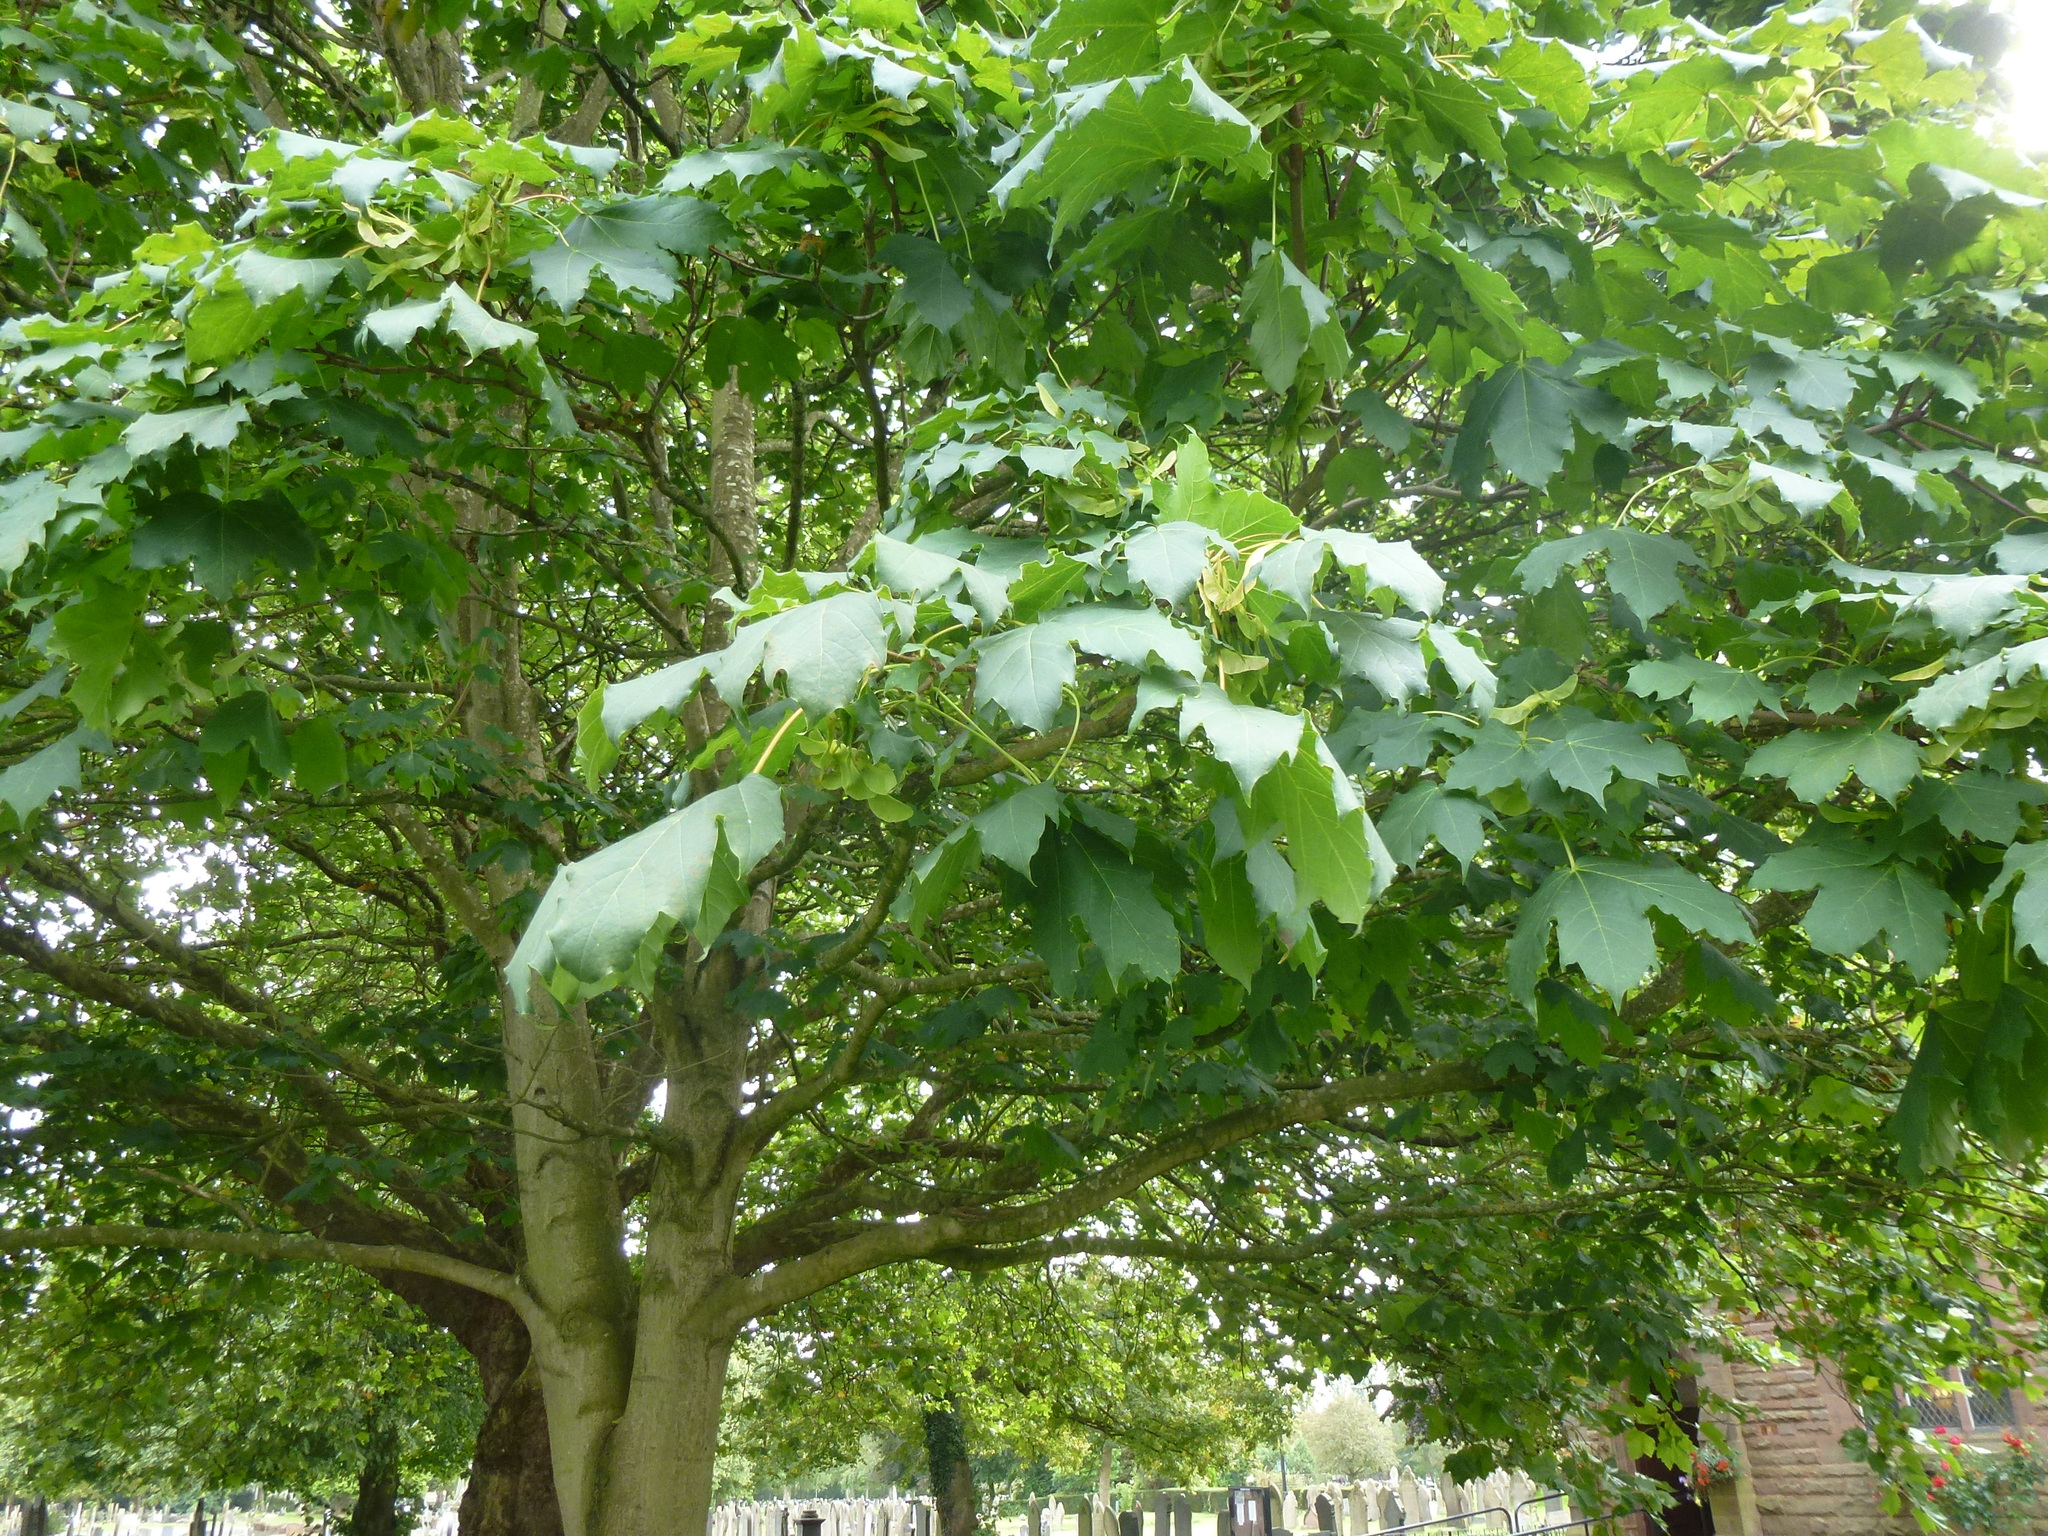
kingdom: Plantae
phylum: Tracheophyta
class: Magnoliopsida
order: Sapindales
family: Sapindaceae
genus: Acer
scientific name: Acer platanoides
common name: Norway maple
